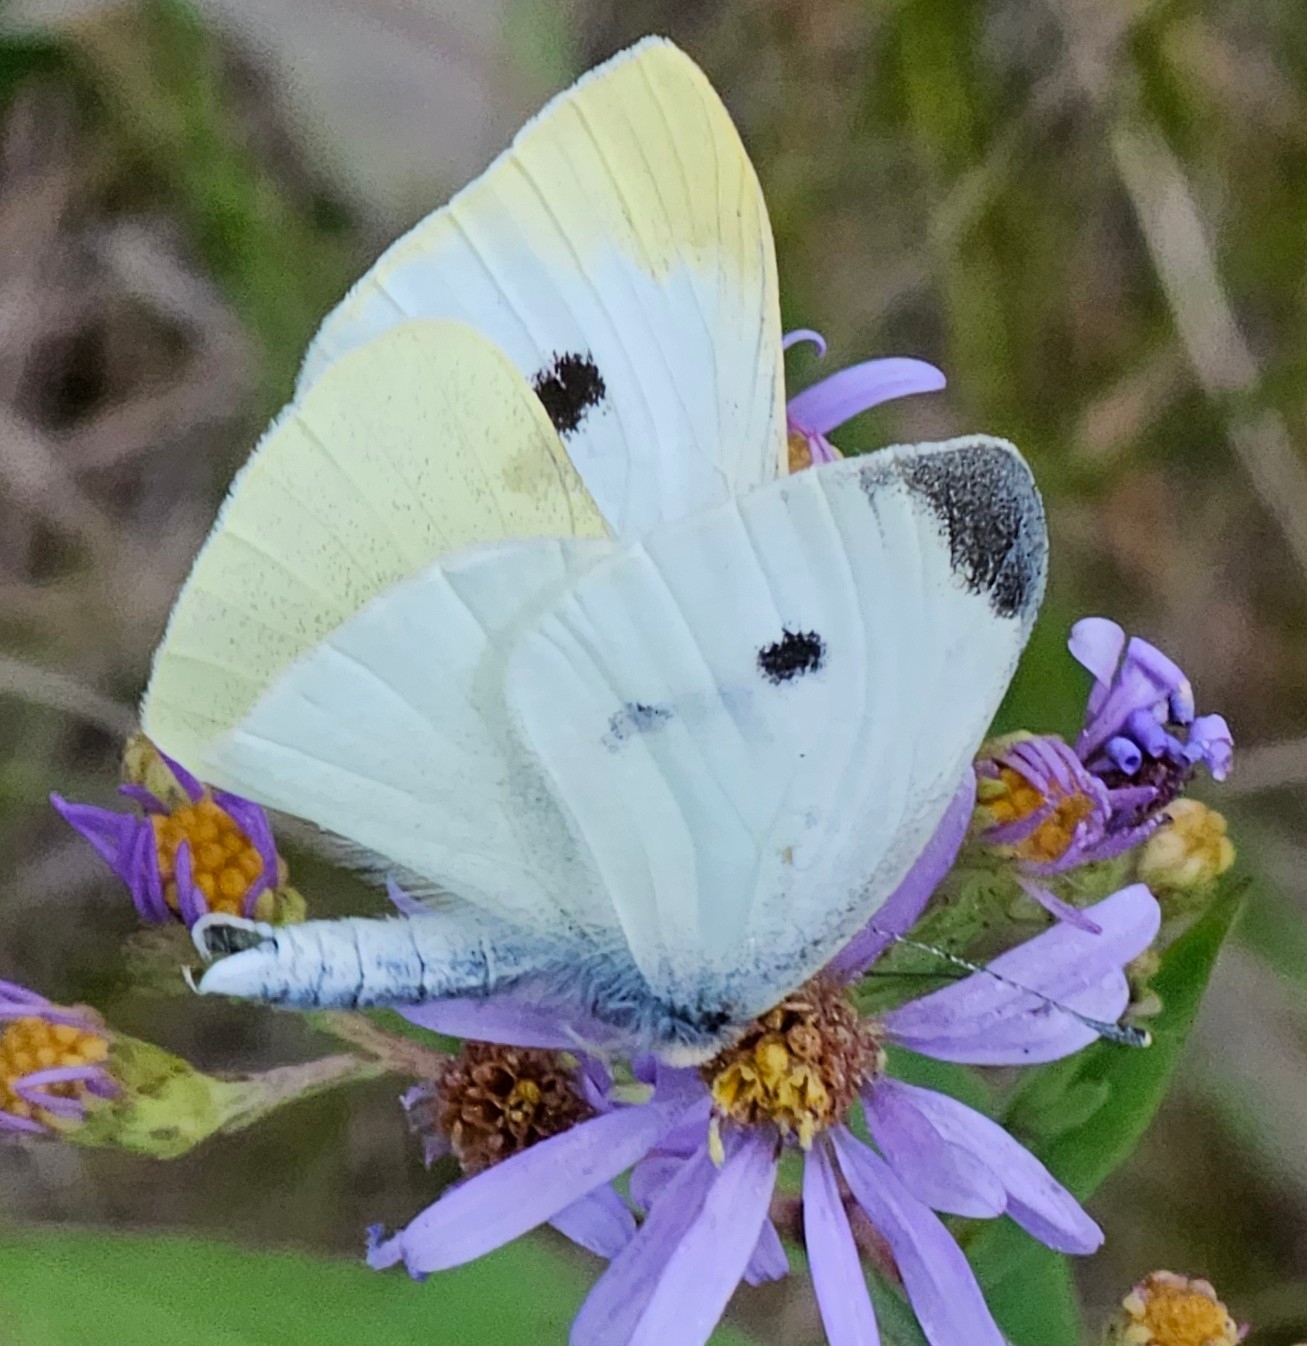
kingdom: Animalia
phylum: Arthropoda
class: Insecta
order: Lepidoptera
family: Pieridae
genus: Pieris
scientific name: Pieris rapae
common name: Small white
